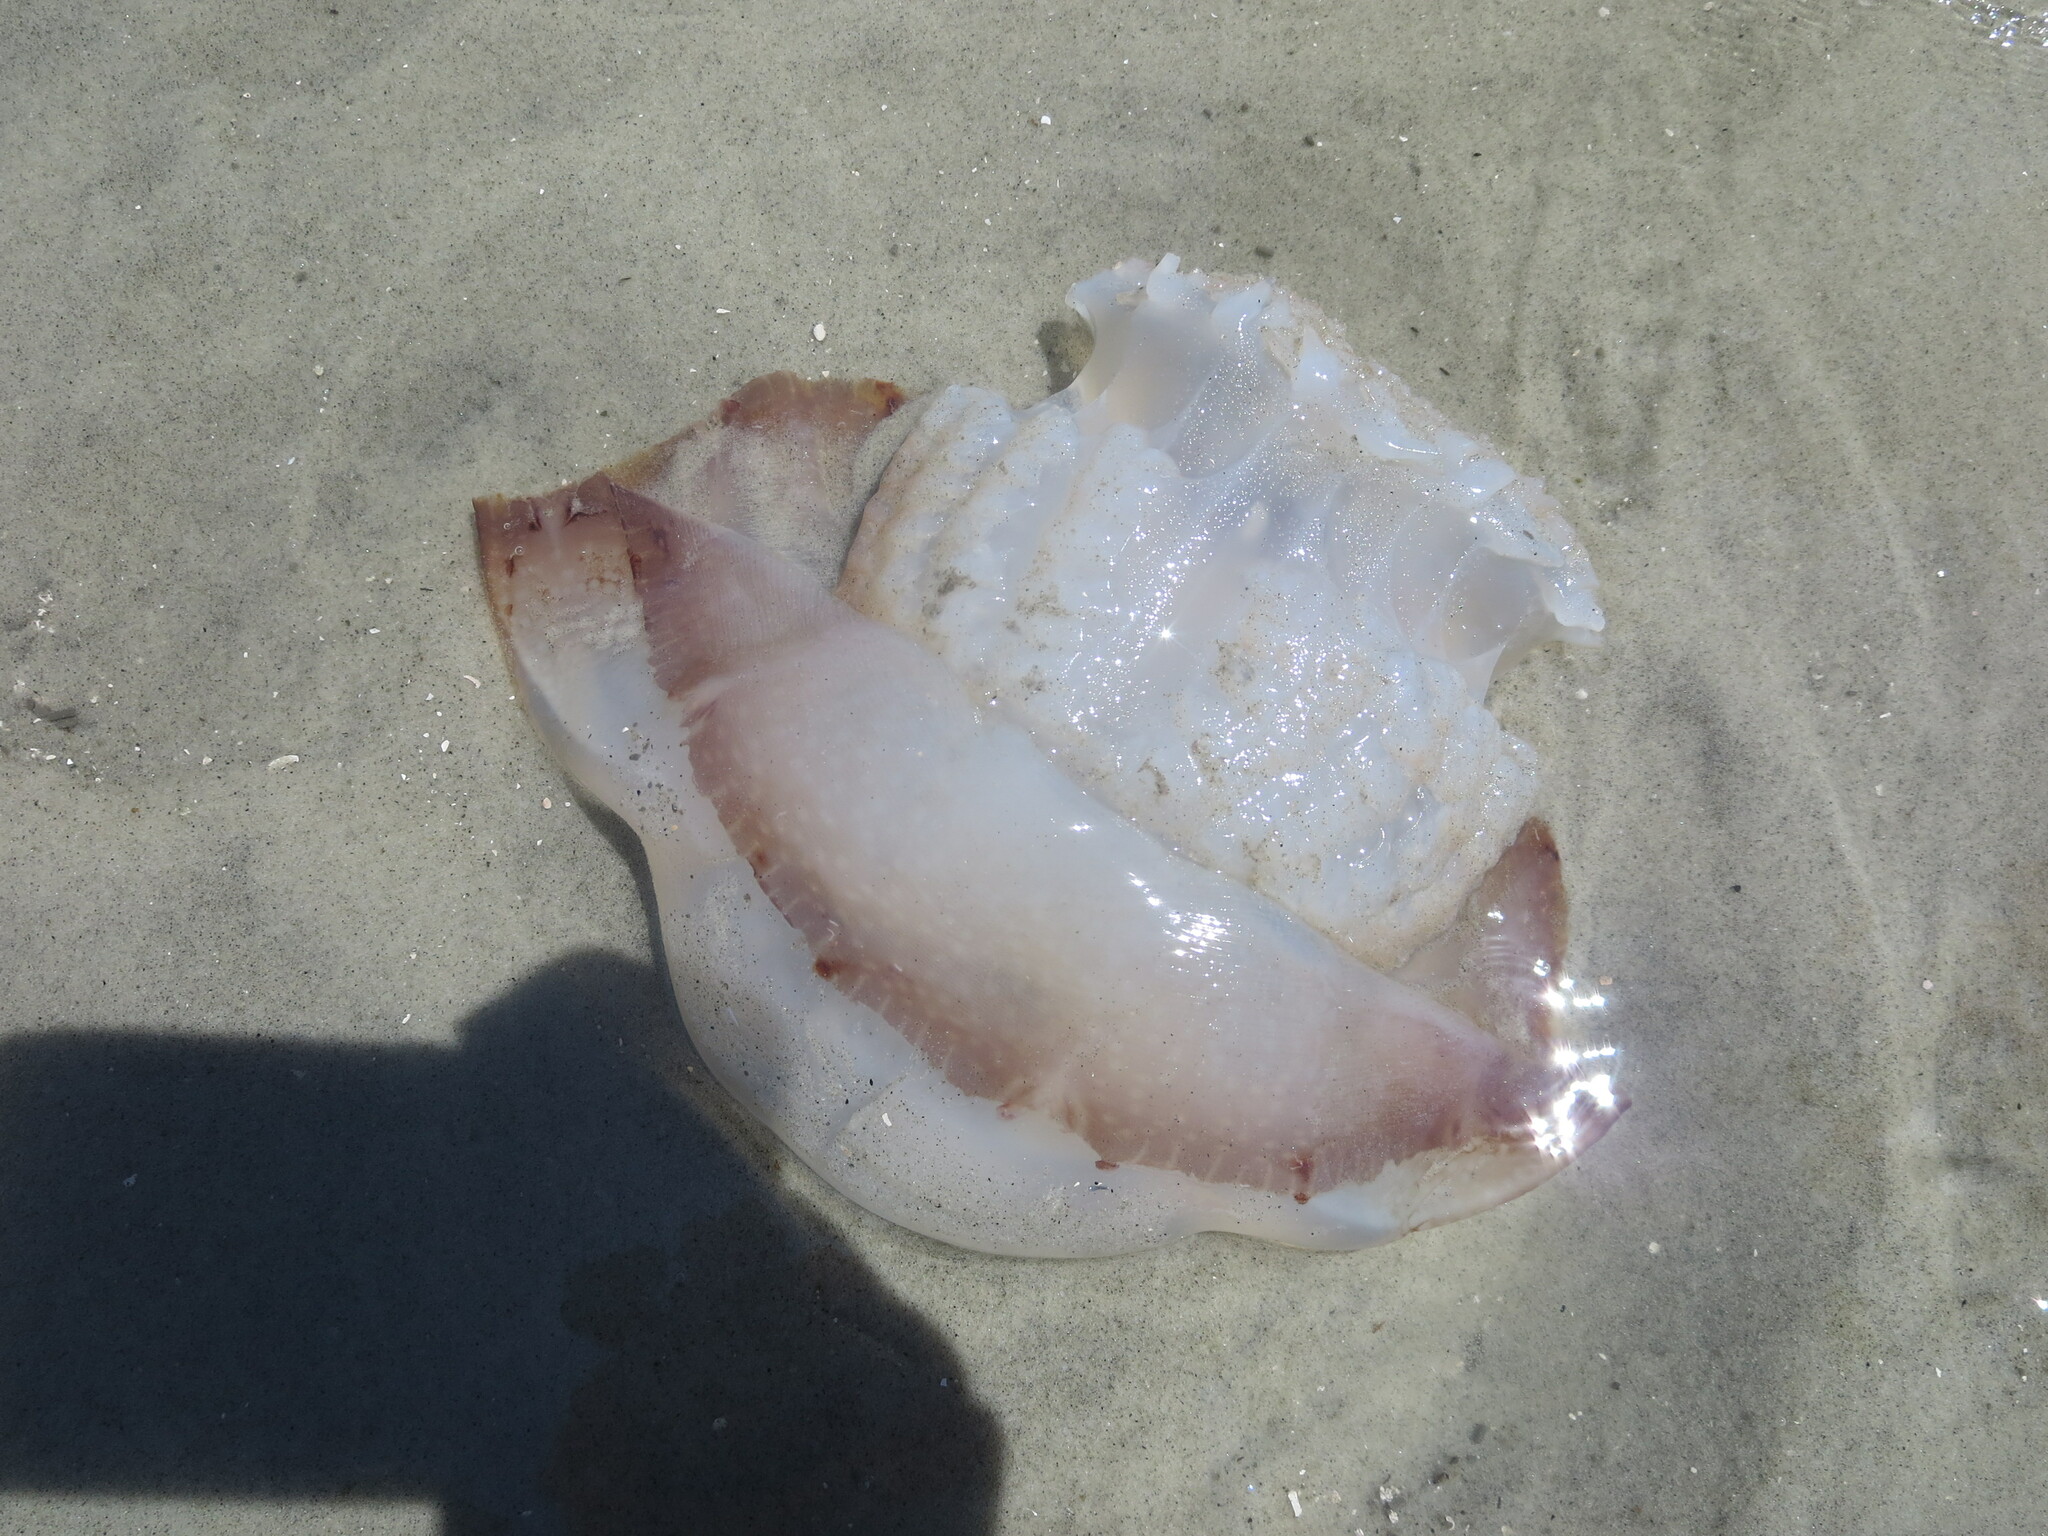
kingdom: Animalia
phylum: Cnidaria
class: Scyphozoa
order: Rhizostomeae
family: Stomolophidae
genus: Stomolophus
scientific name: Stomolophus meleagris
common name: Cabbagehead
